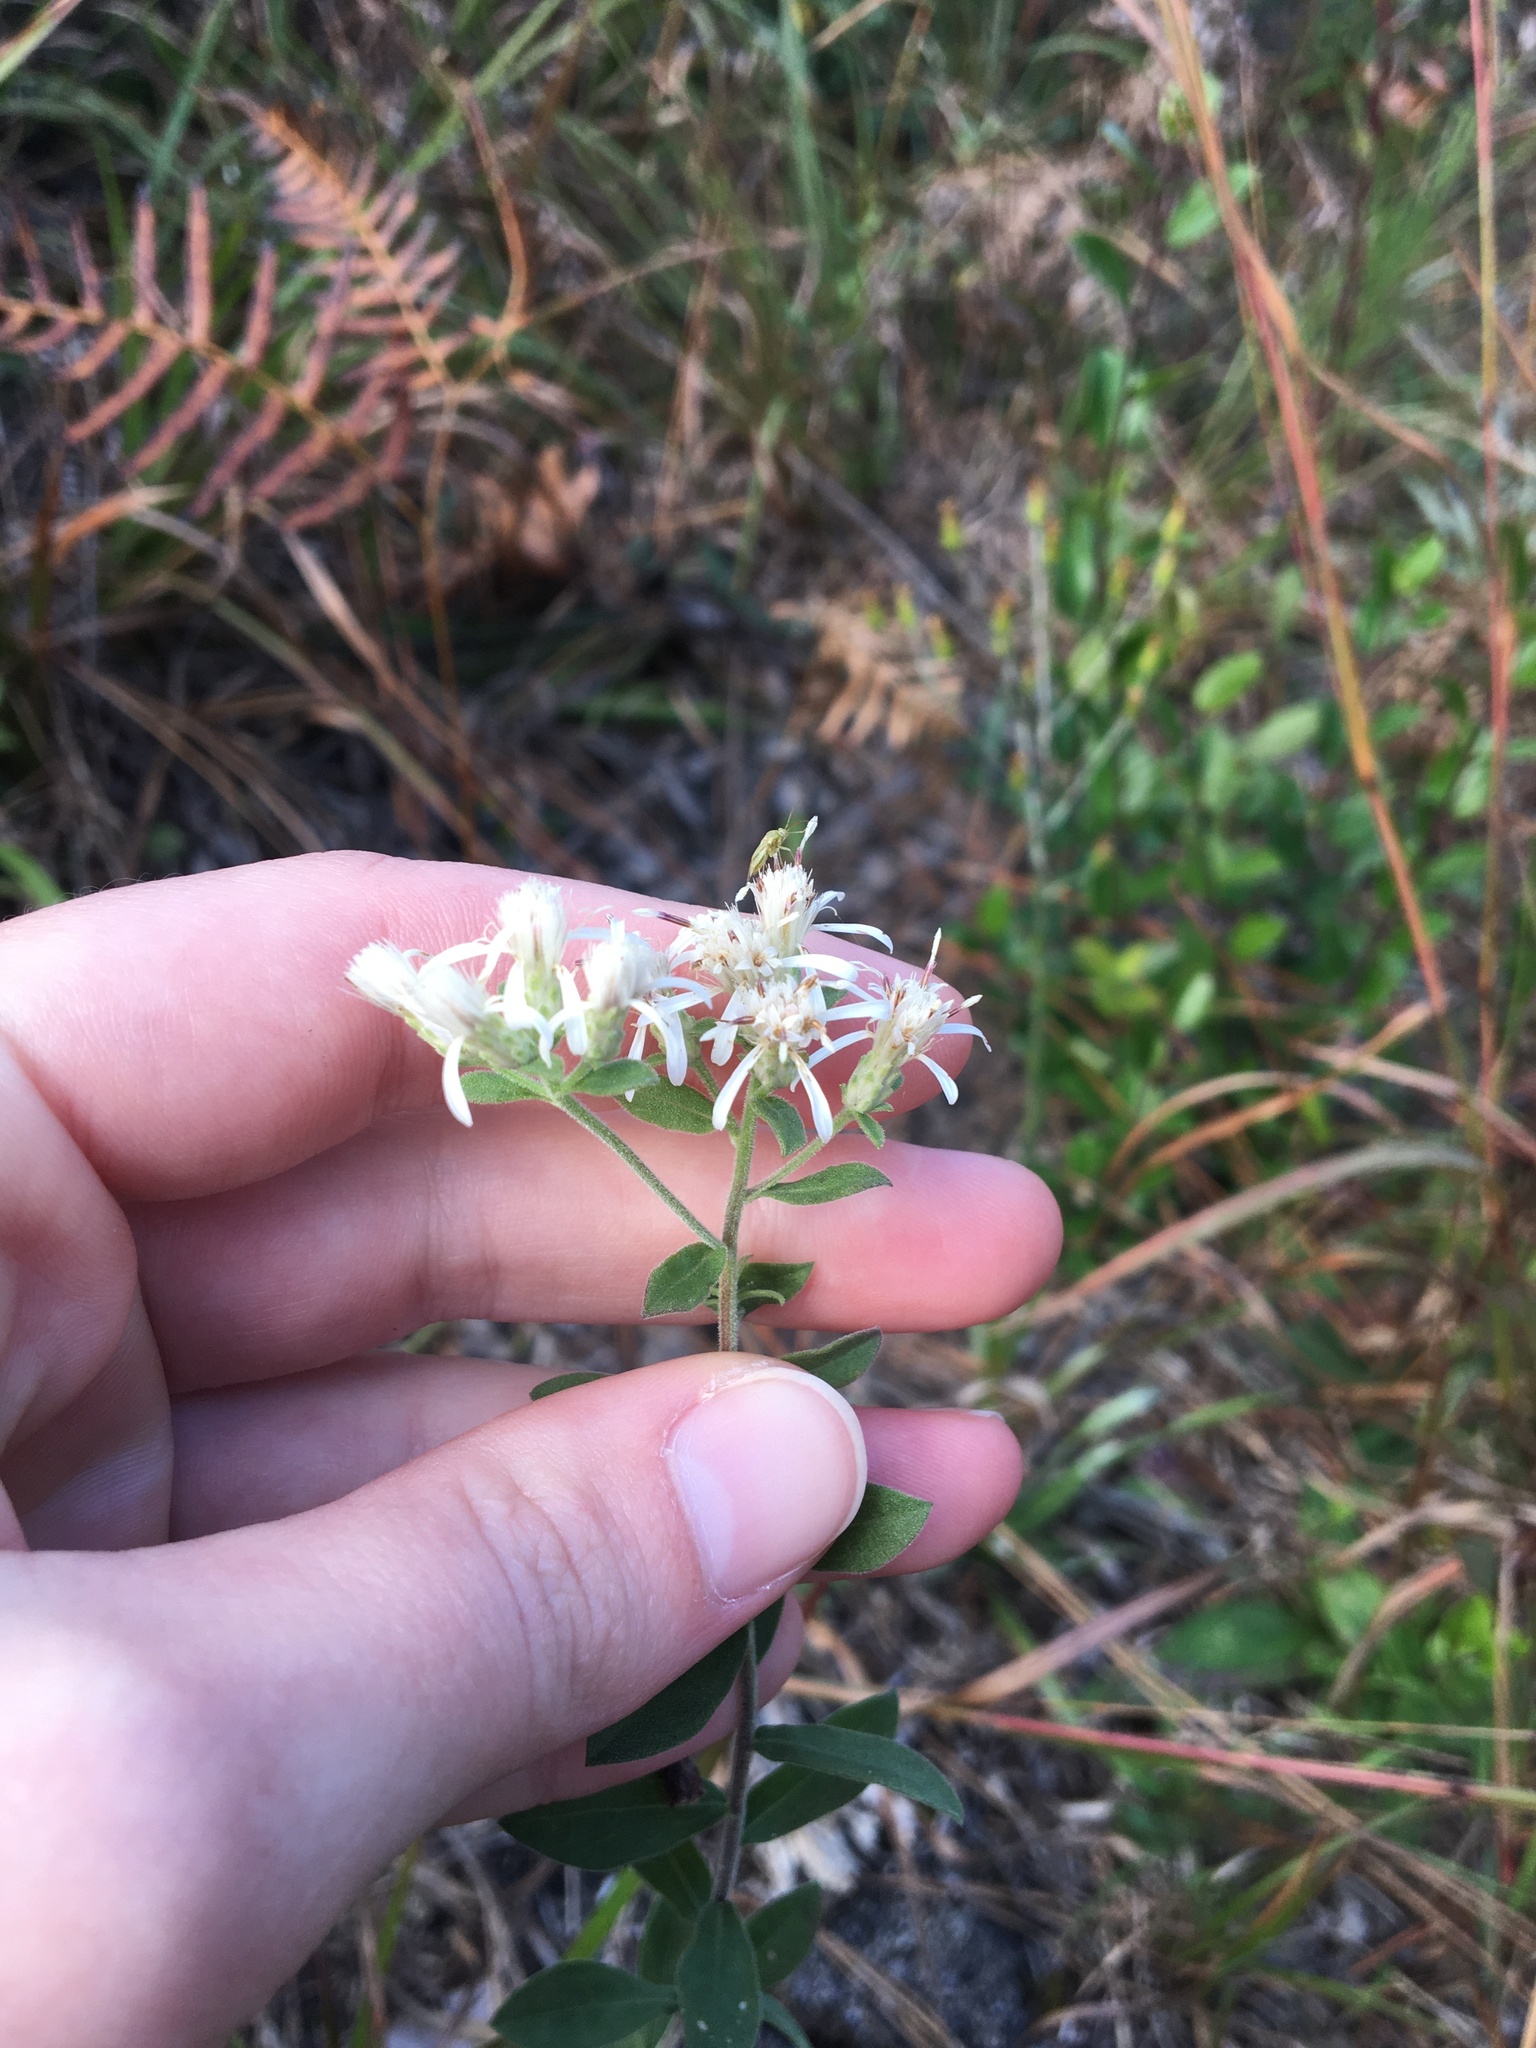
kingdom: Plantae
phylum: Tracheophyta
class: Magnoliopsida
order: Asterales
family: Asteraceae
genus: Sericocarpus
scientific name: Sericocarpus tortifolius
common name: Dixie aster
